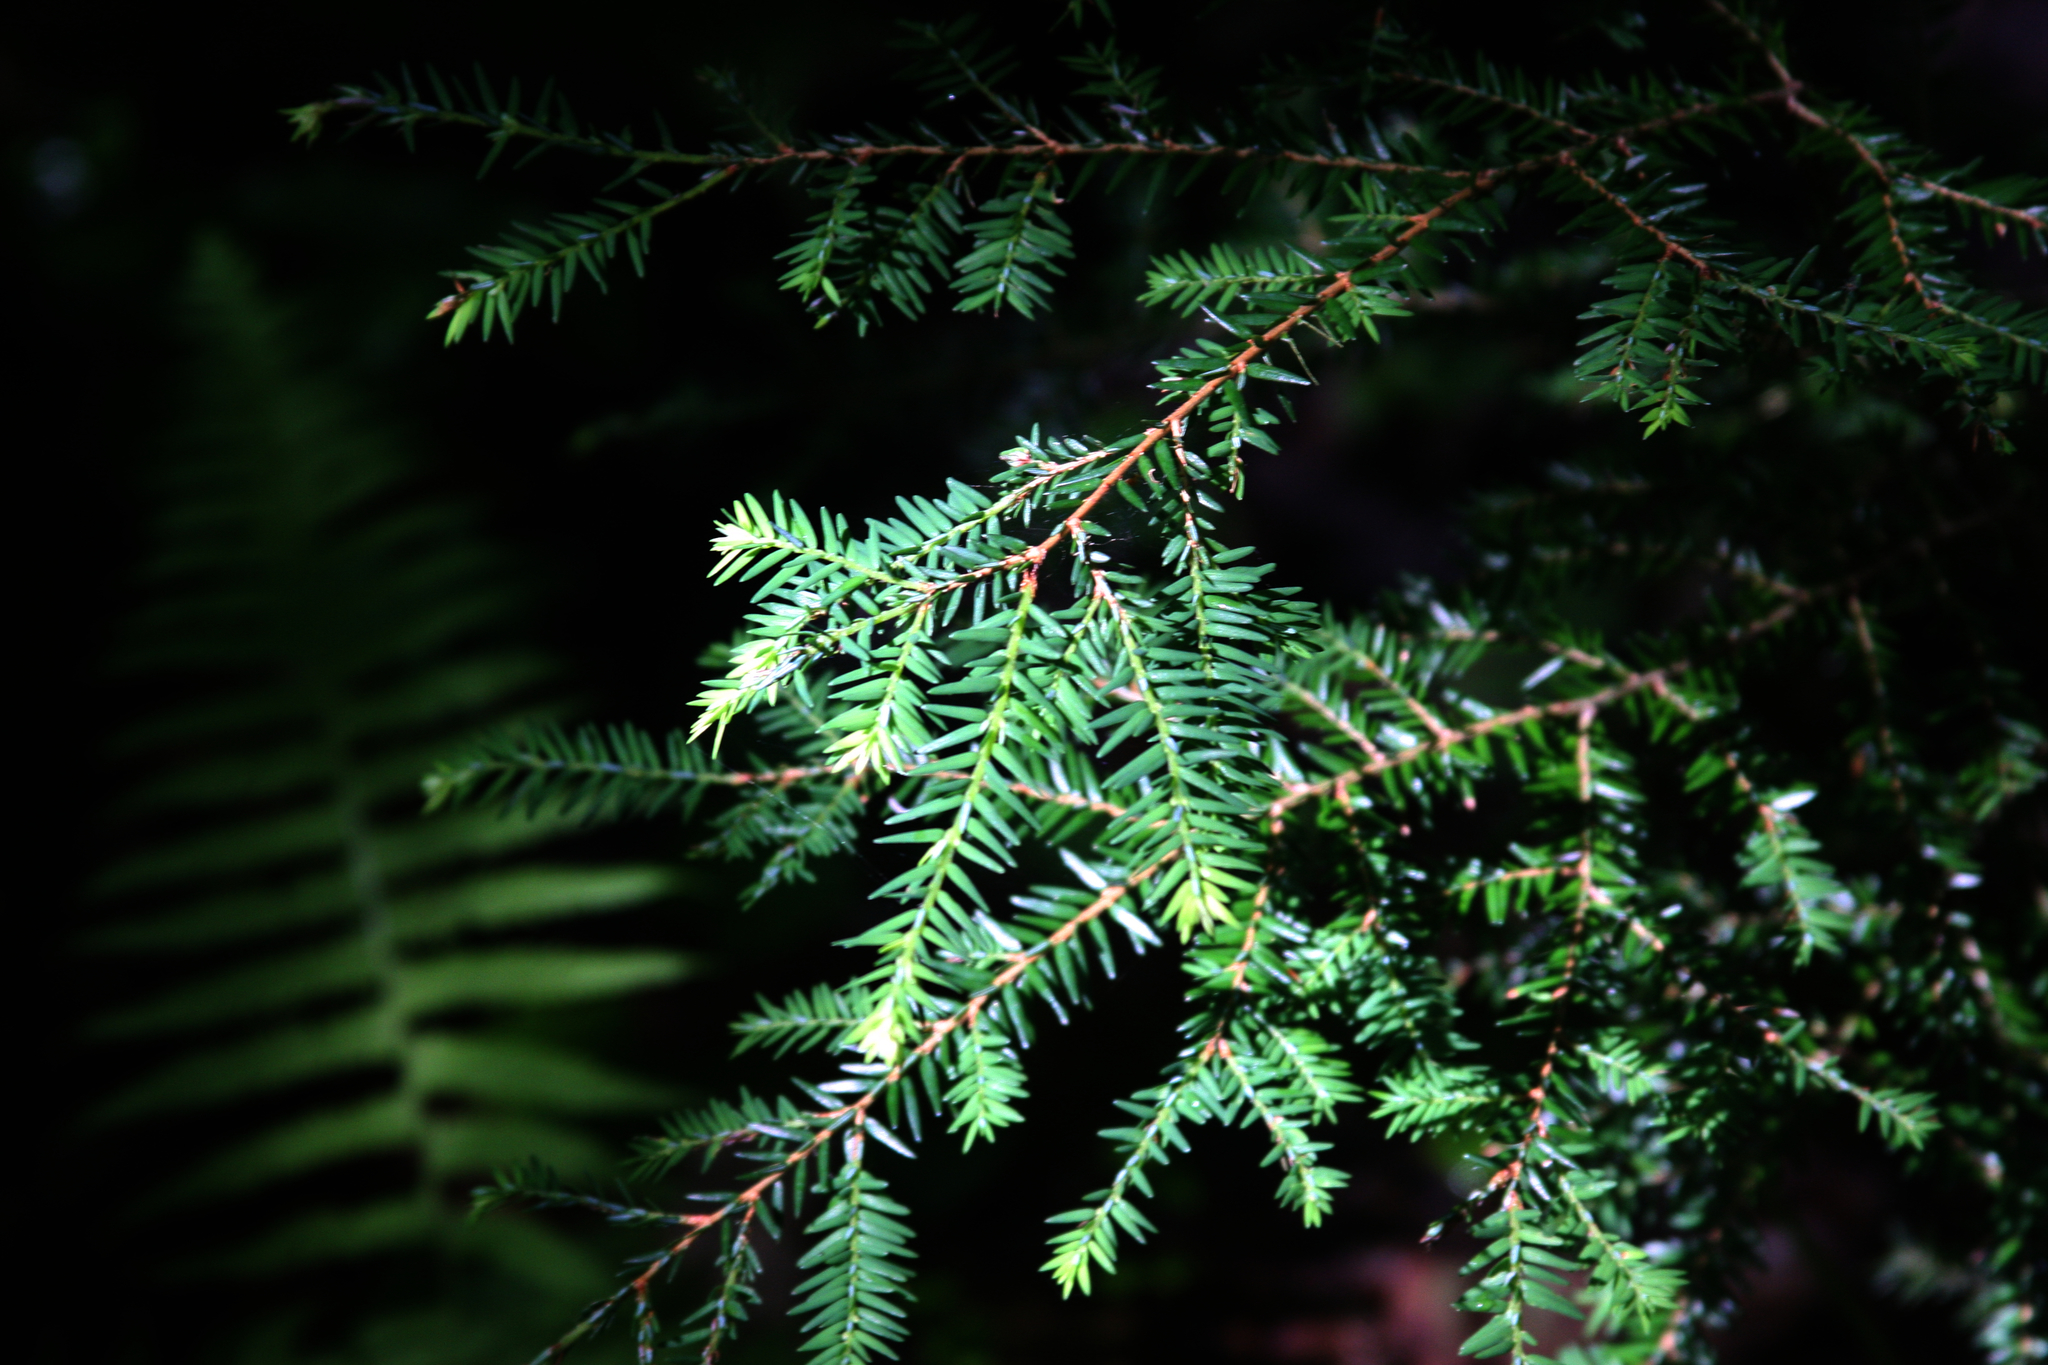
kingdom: Plantae
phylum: Tracheophyta
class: Pinopsida
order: Pinales
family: Pinaceae
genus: Tsuga
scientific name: Tsuga canadensis
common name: Eastern hemlock
